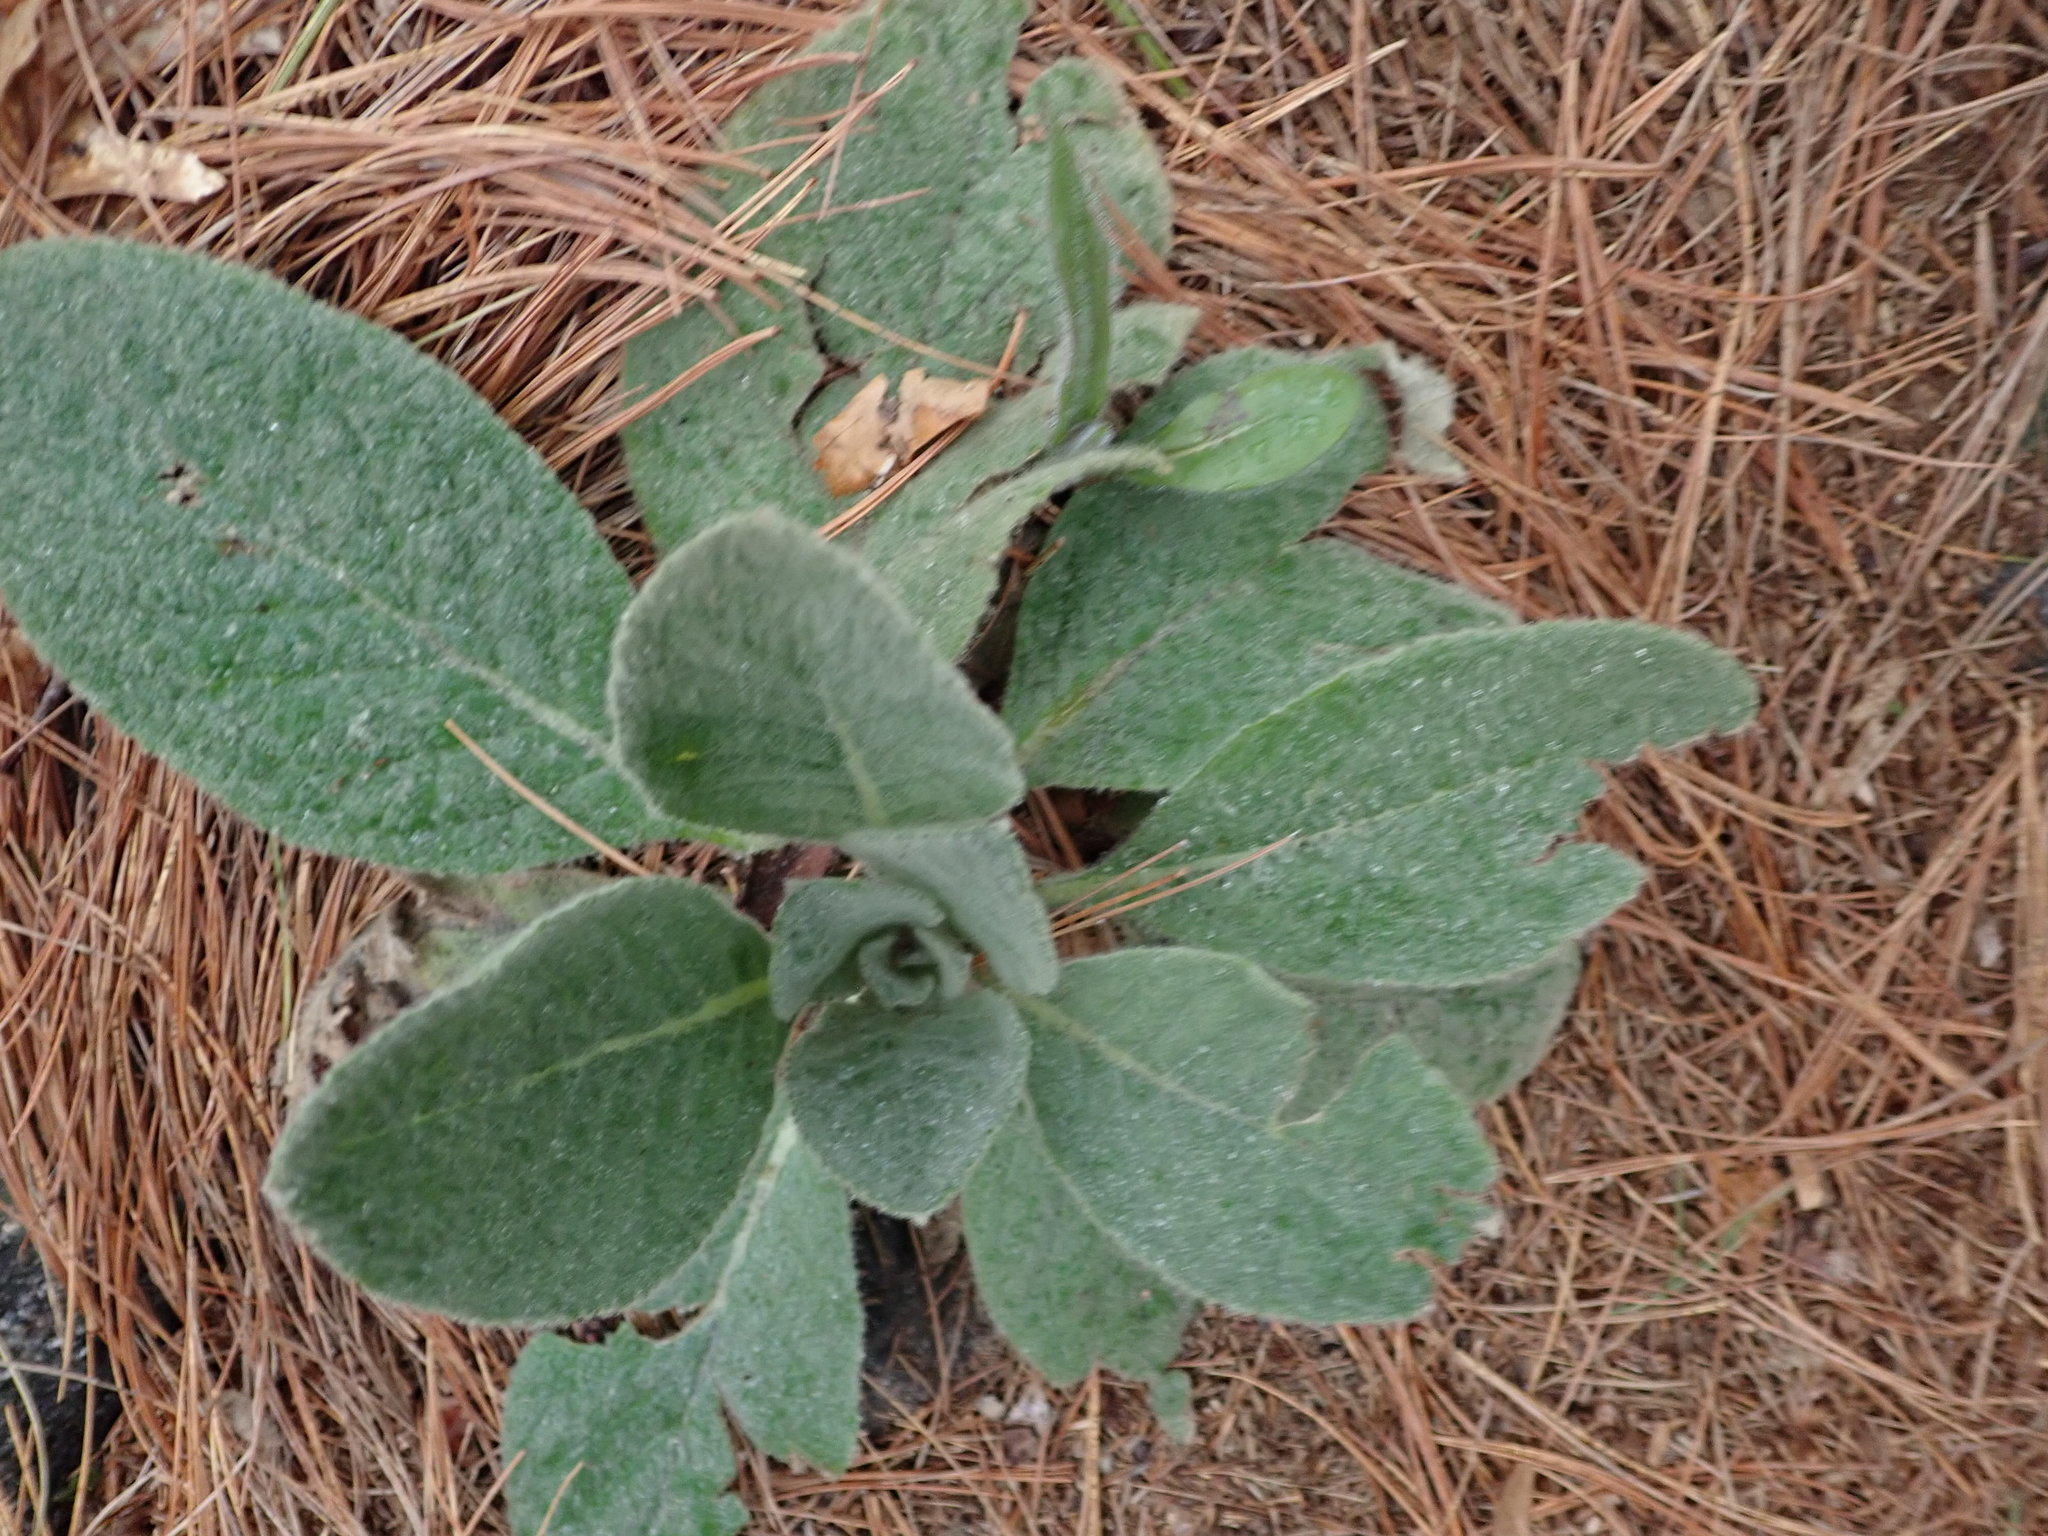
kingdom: Plantae
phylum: Tracheophyta
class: Magnoliopsida
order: Lamiales
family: Scrophulariaceae
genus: Verbascum
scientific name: Verbascum thapsus
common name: Common mullein
